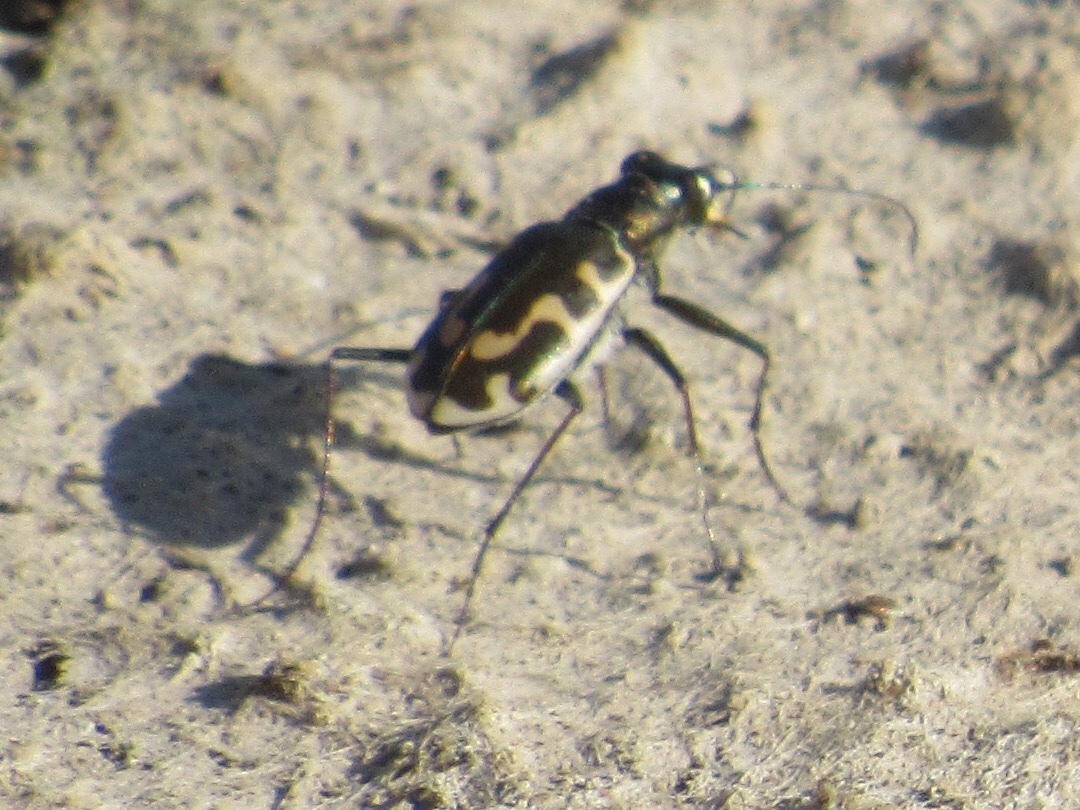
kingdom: Animalia
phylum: Arthropoda
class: Insecta
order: Coleoptera
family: Carabidae
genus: Cicindela
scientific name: Cicindela hirticollis
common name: Hairy-necked tiger beetle
